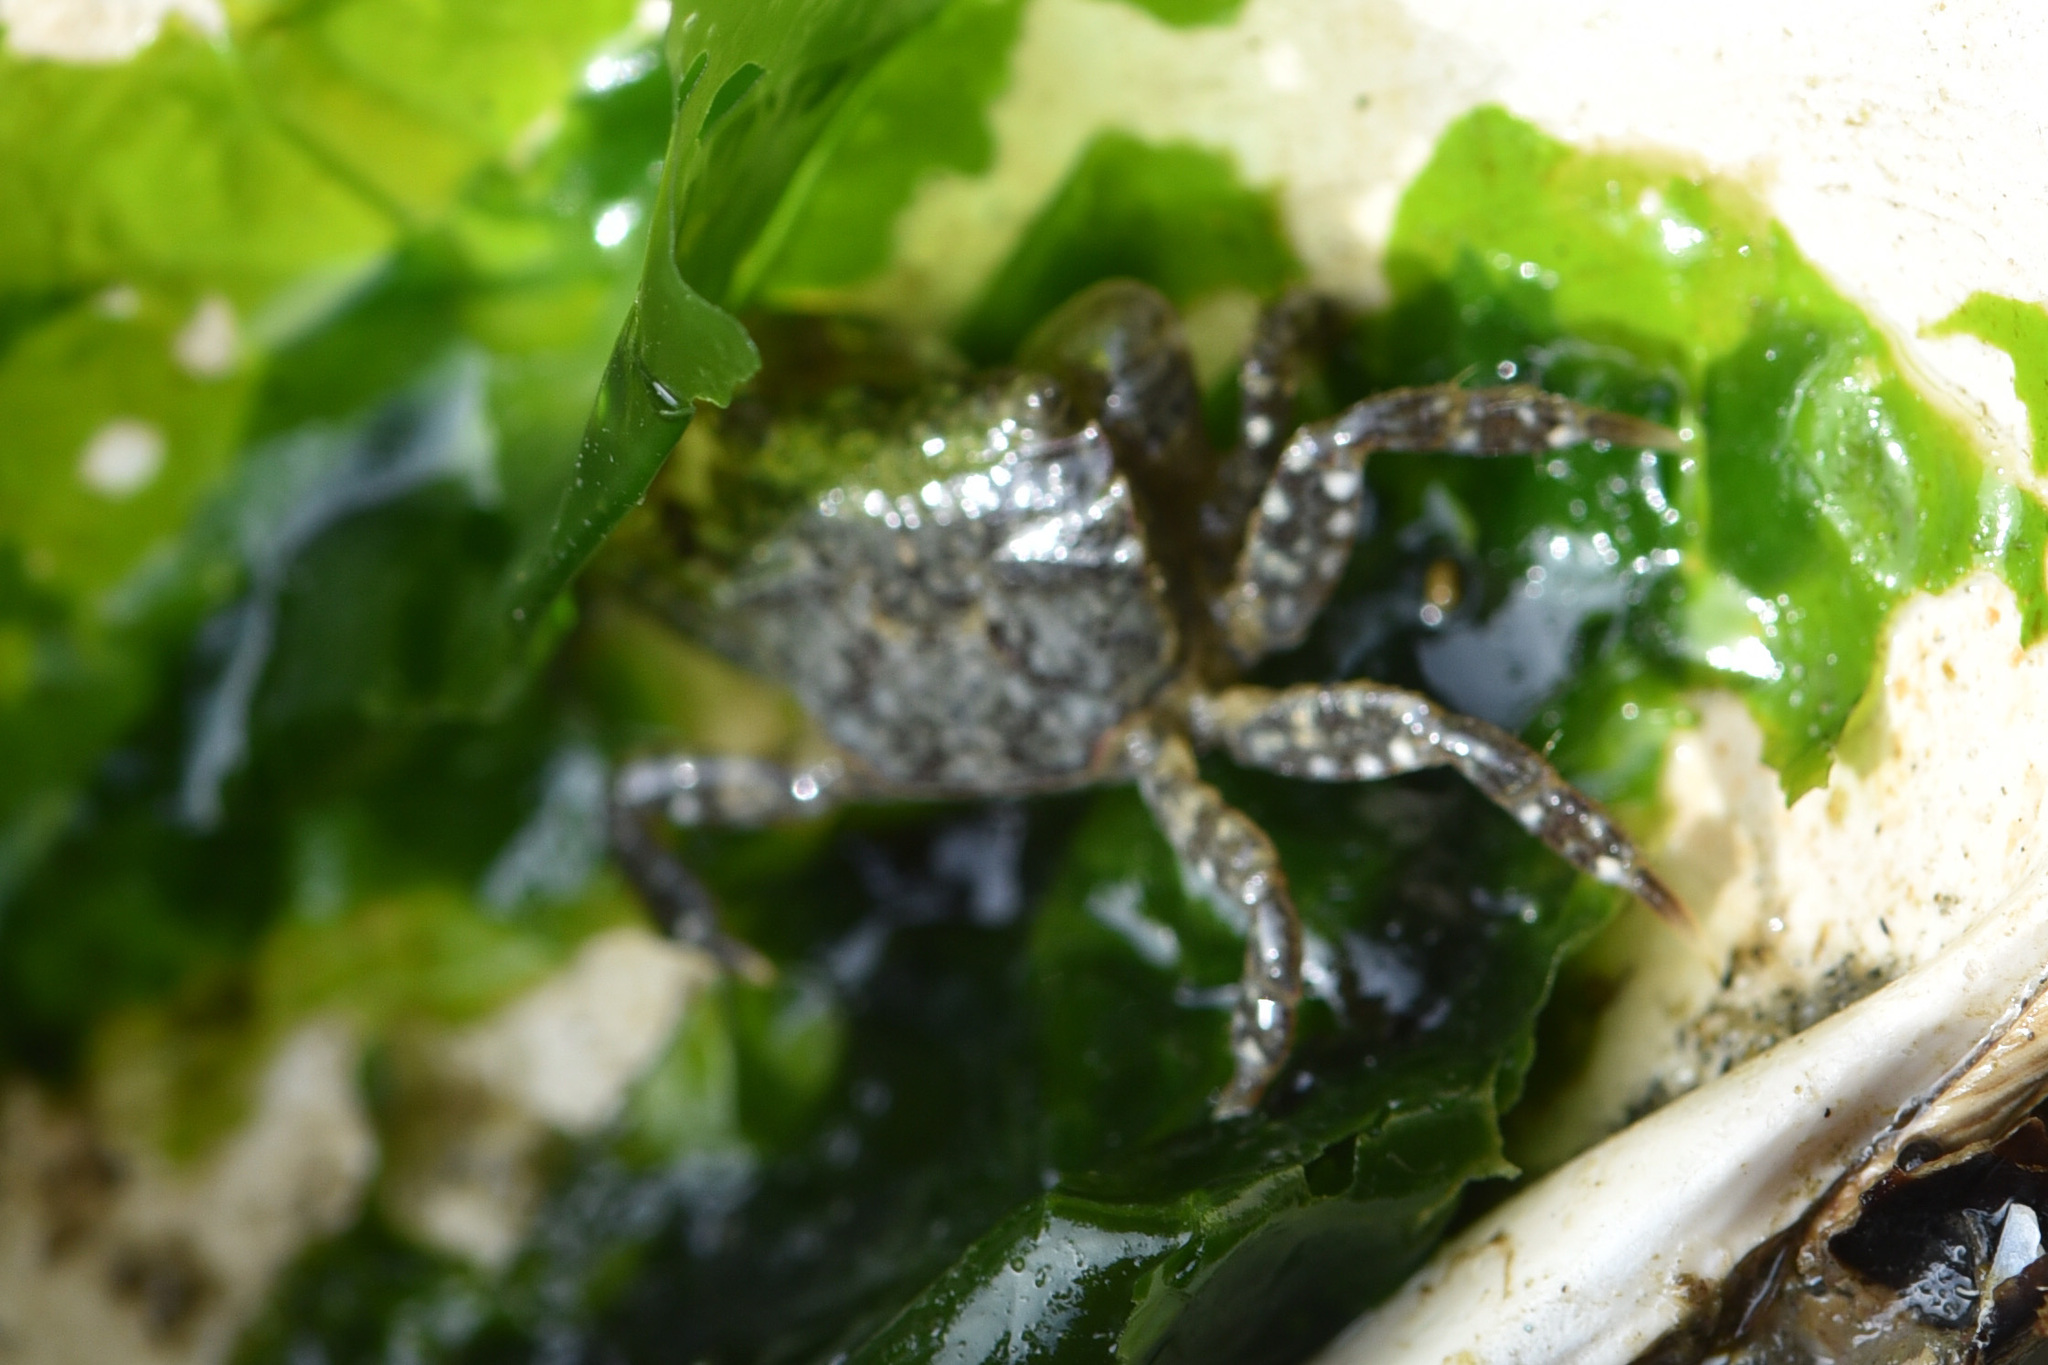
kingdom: Animalia
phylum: Arthropoda
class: Malacostraca
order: Decapoda
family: Varunidae
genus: Hemigrapsus
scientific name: Hemigrapsus oregonensis
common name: Yellow shore crab
